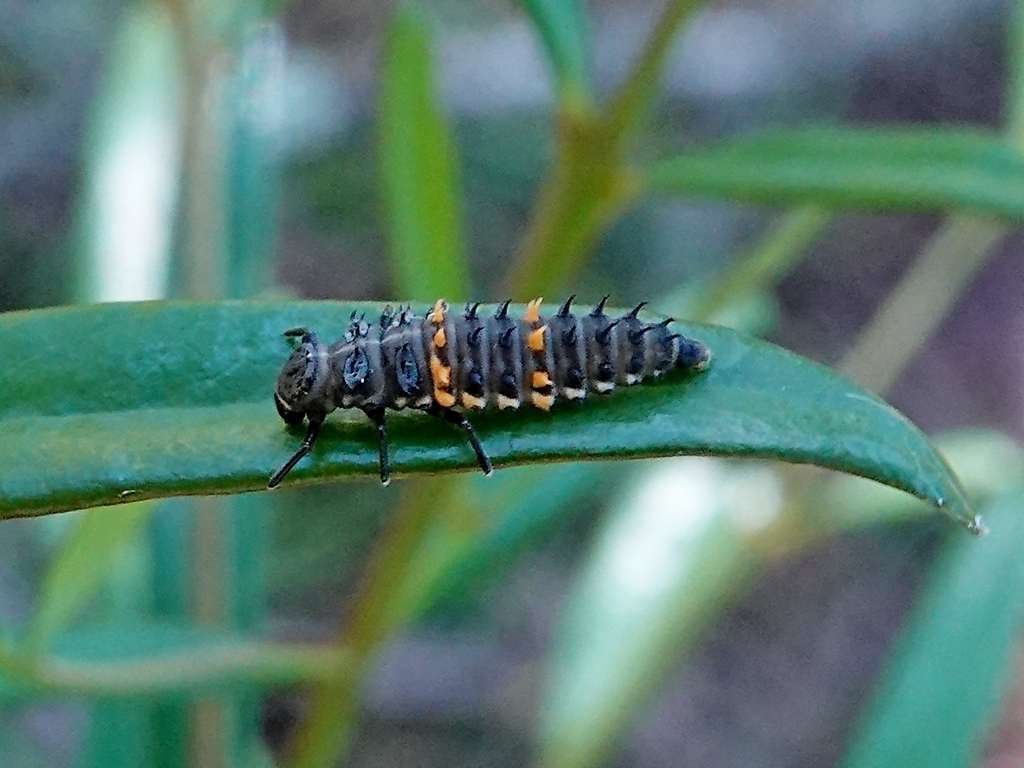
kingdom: Animalia
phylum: Arthropoda
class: Insecta
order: Coleoptera
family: Coccinellidae
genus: Harmonia
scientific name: Harmonia conformis
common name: Common spotted ladybird beetle
